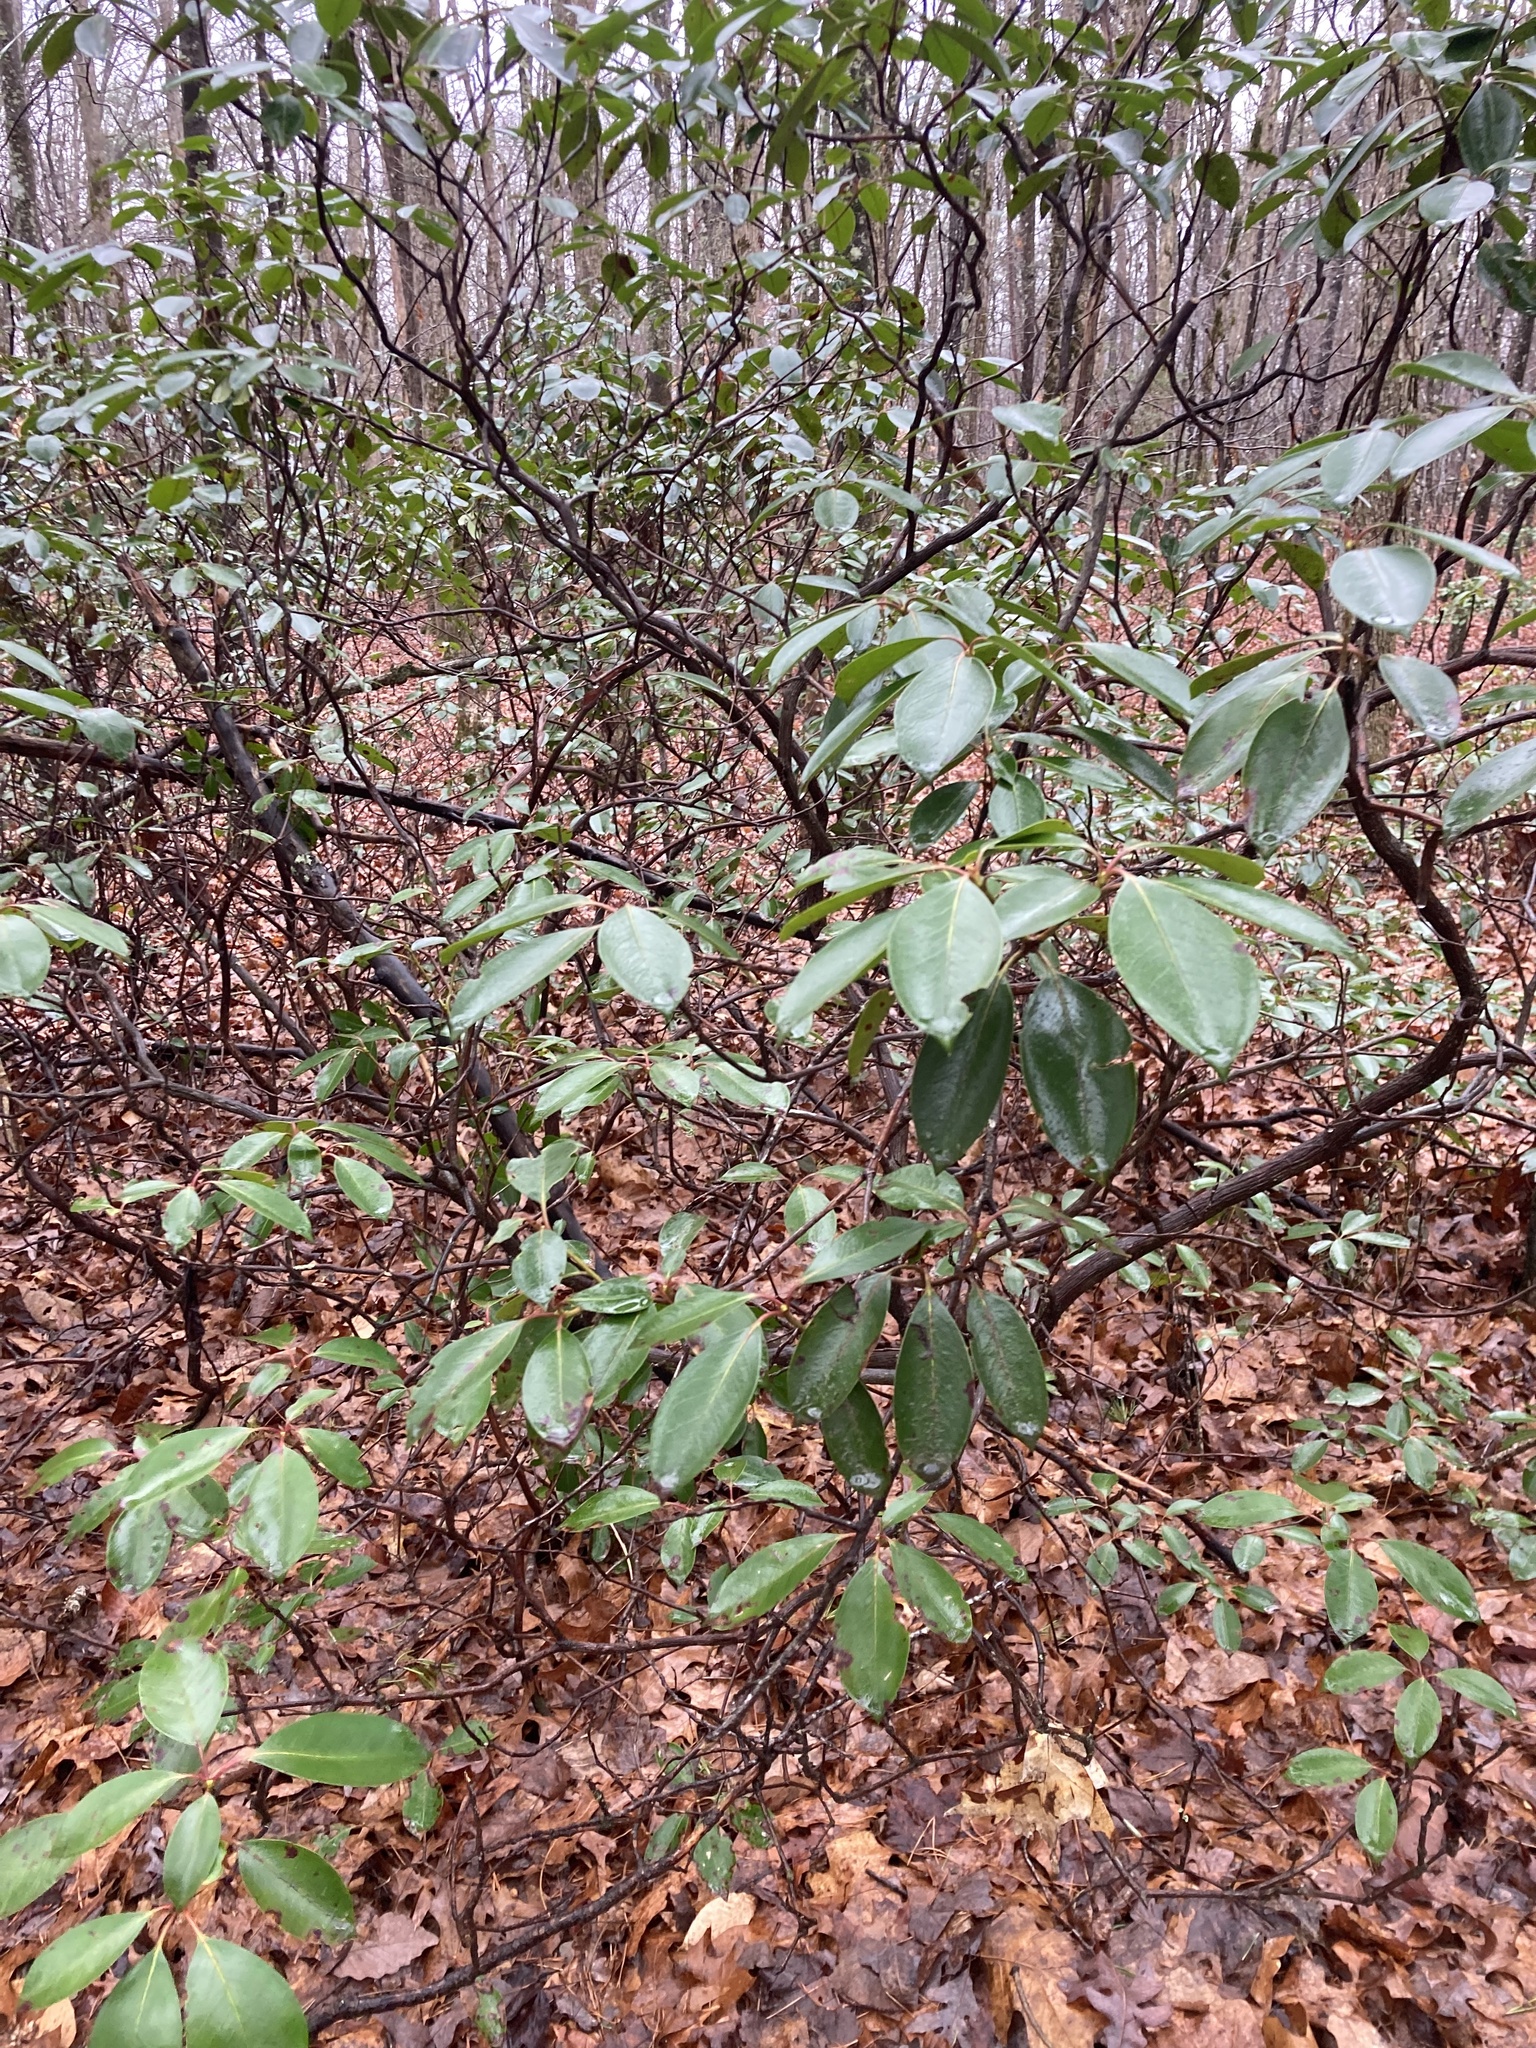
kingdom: Plantae
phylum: Tracheophyta
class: Magnoliopsida
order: Ericales
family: Ericaceae
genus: Kalmia
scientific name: Kalmia latifolia
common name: Mountain-laurel
